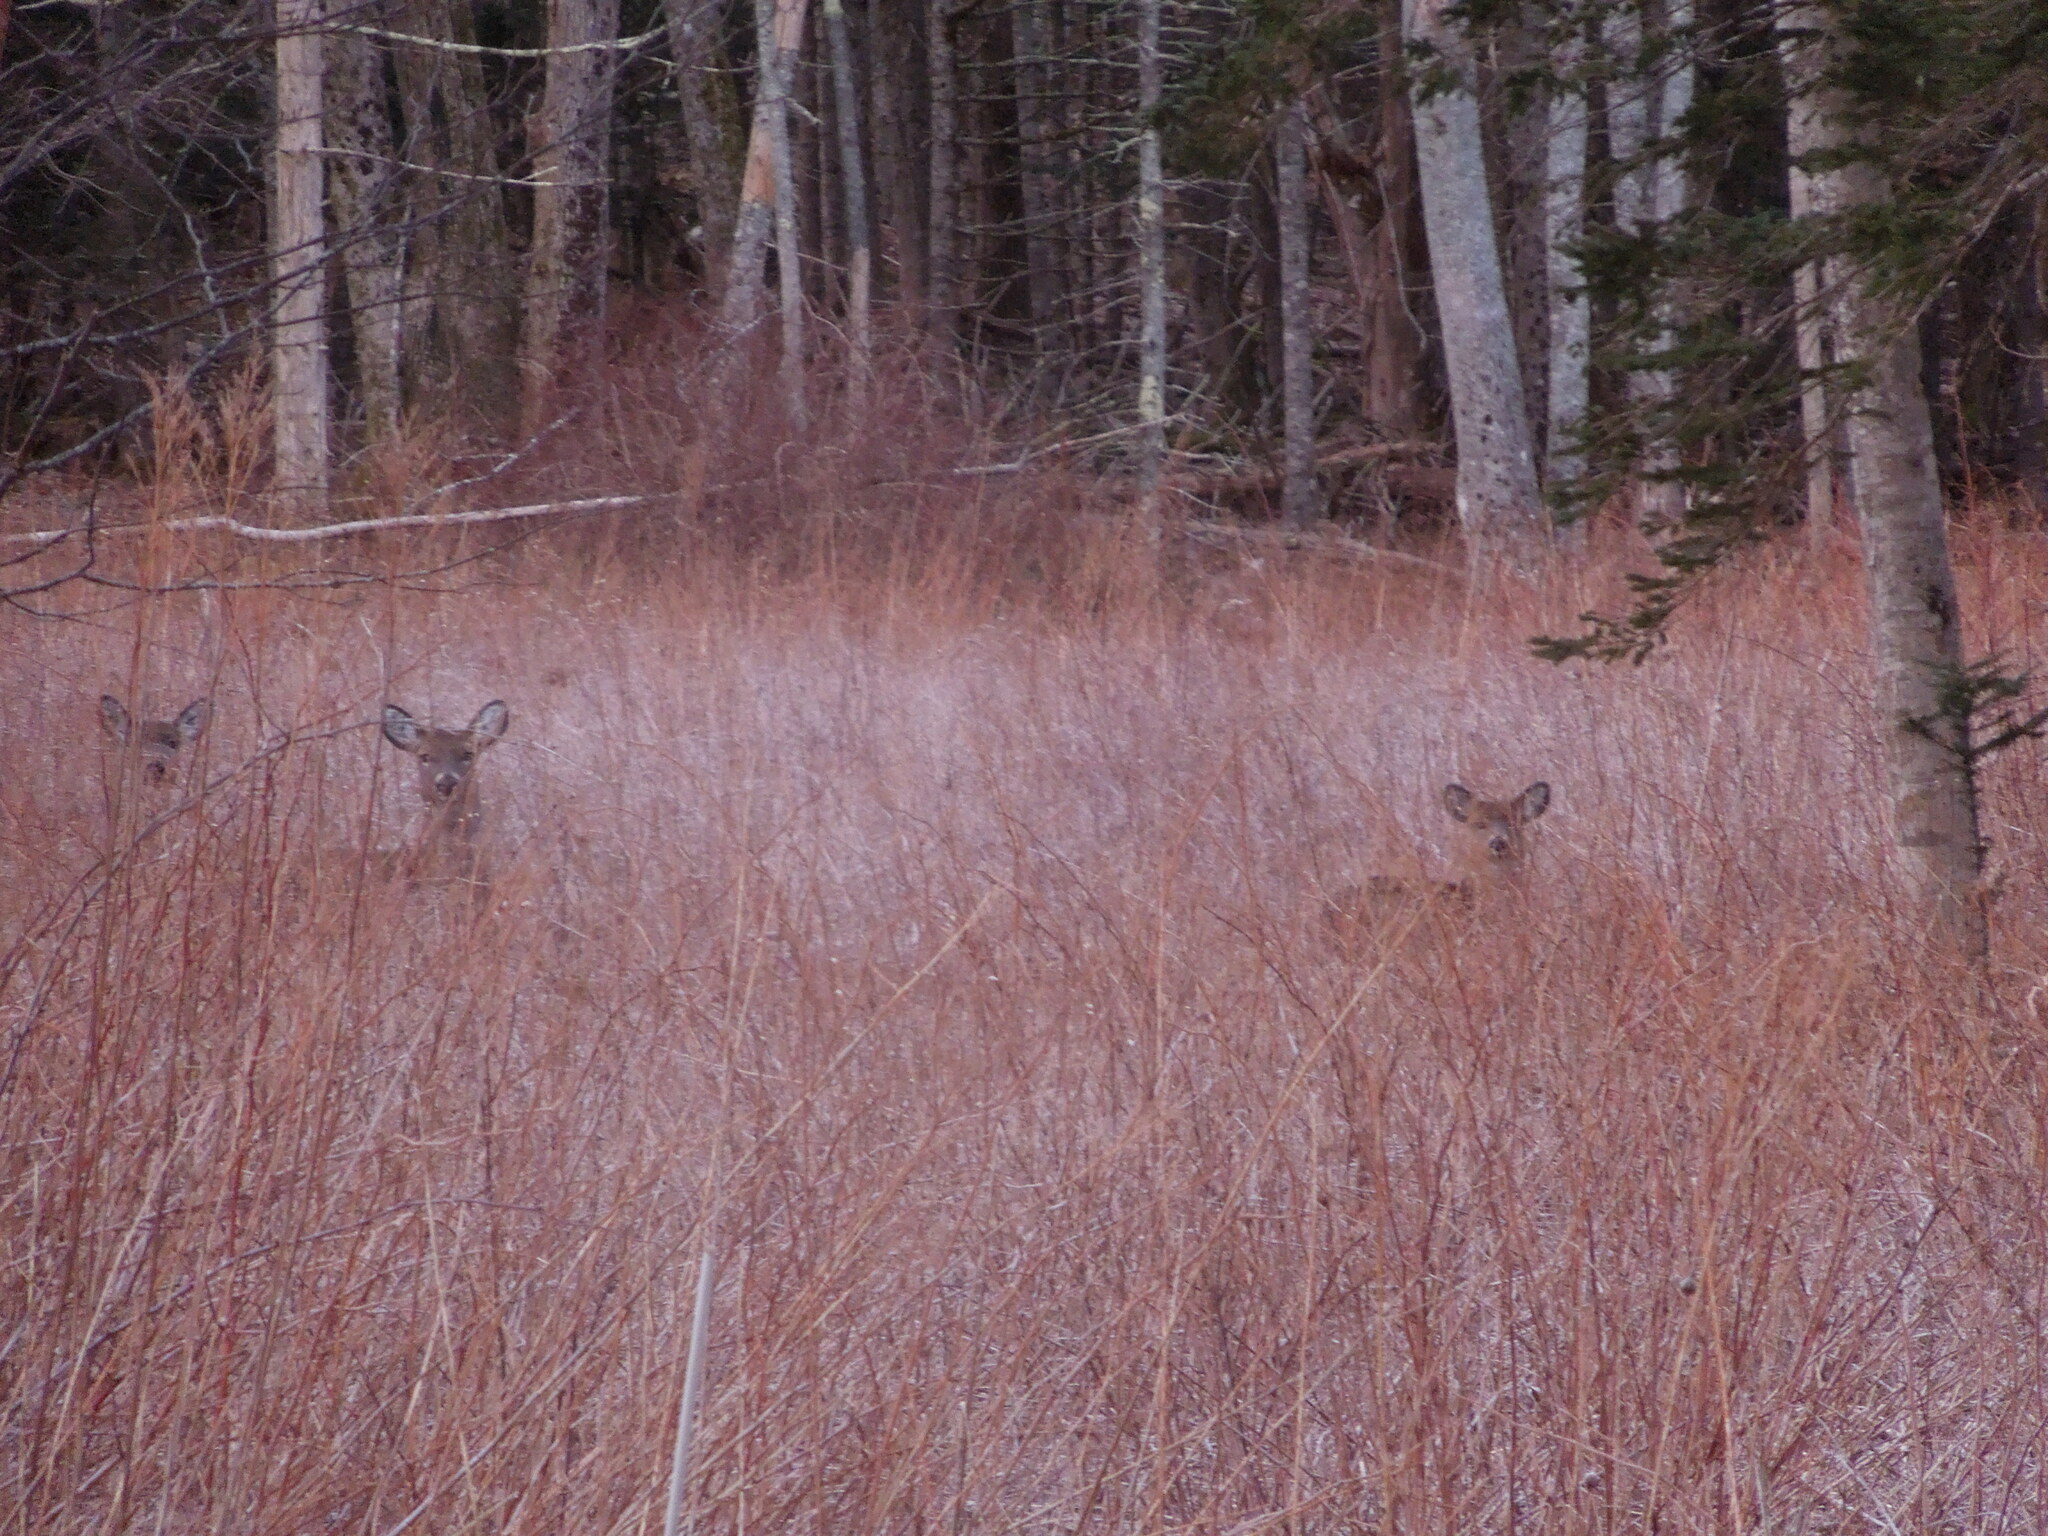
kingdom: Animalia
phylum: Chordata
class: Mammalia
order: Artiodactyla
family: Cervidae
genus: Odocoileus
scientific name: Odocoileus virginianus
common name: White-tailed deer
